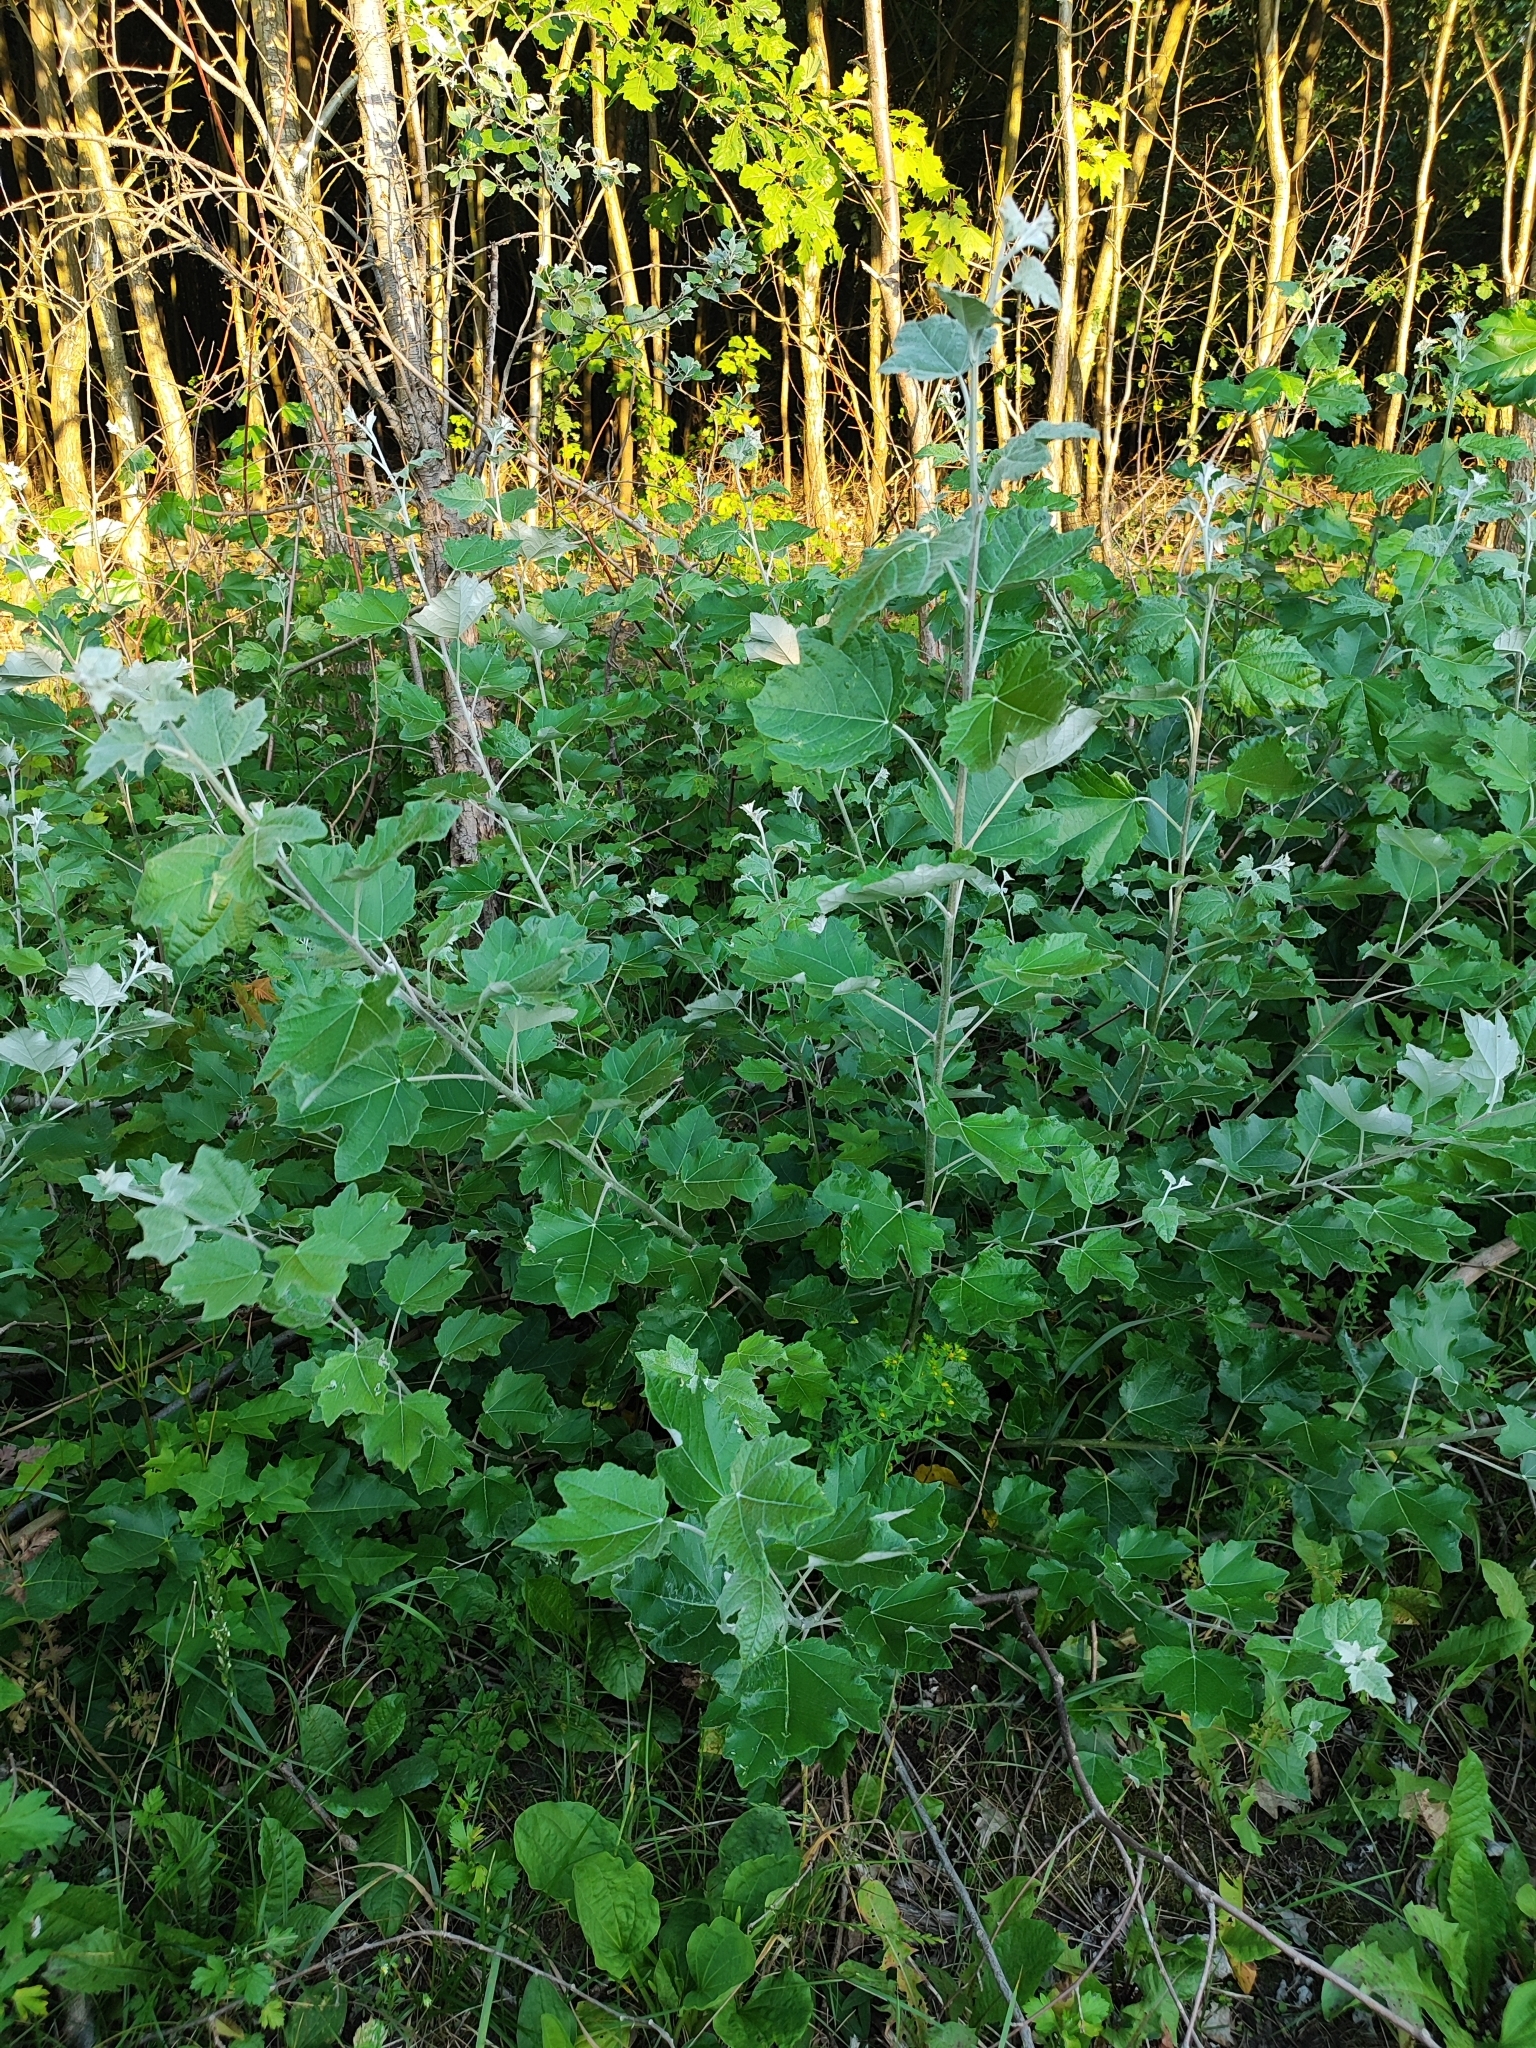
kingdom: Plantae
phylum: Tracheophyta
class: Magnoliopsida
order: Malpighiales
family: Salicaceae
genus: Populus
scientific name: Populus alba
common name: White poplar
